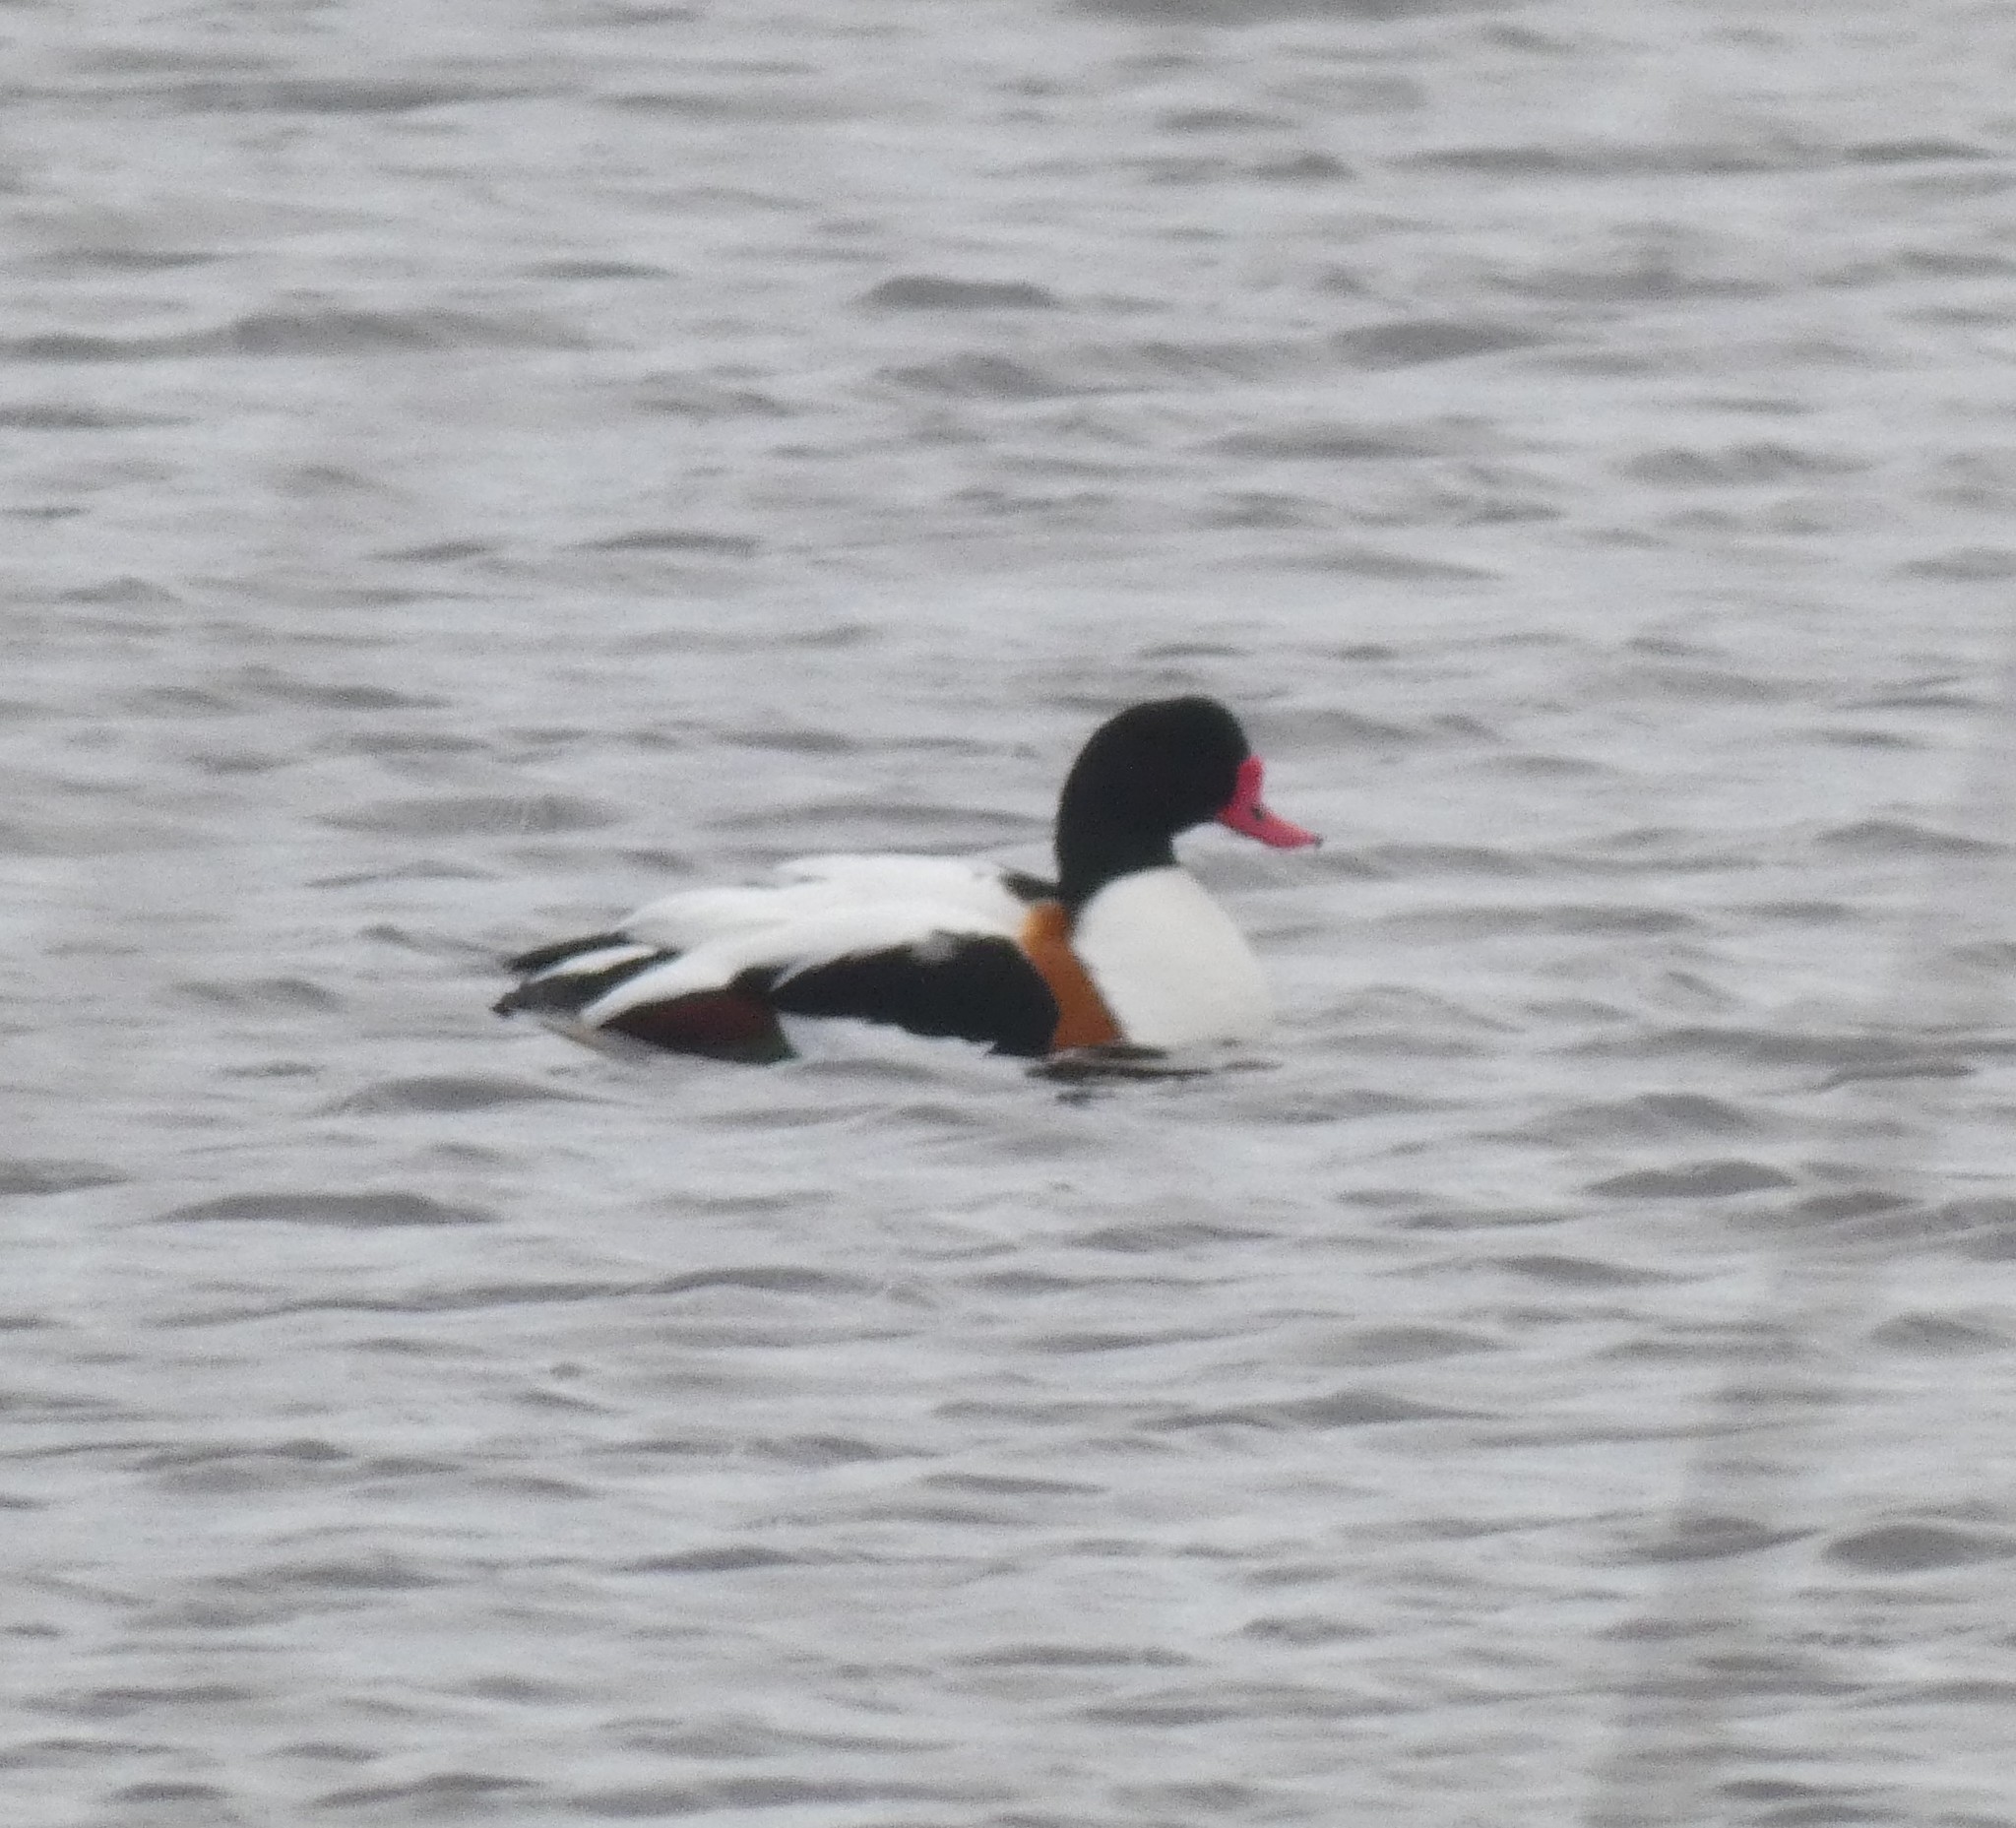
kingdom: Animalia
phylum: Chordata
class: Aves
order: Anseriformes
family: Anatidae
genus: Tadorna
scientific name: Tadorna tadorna
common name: Common shelduck
